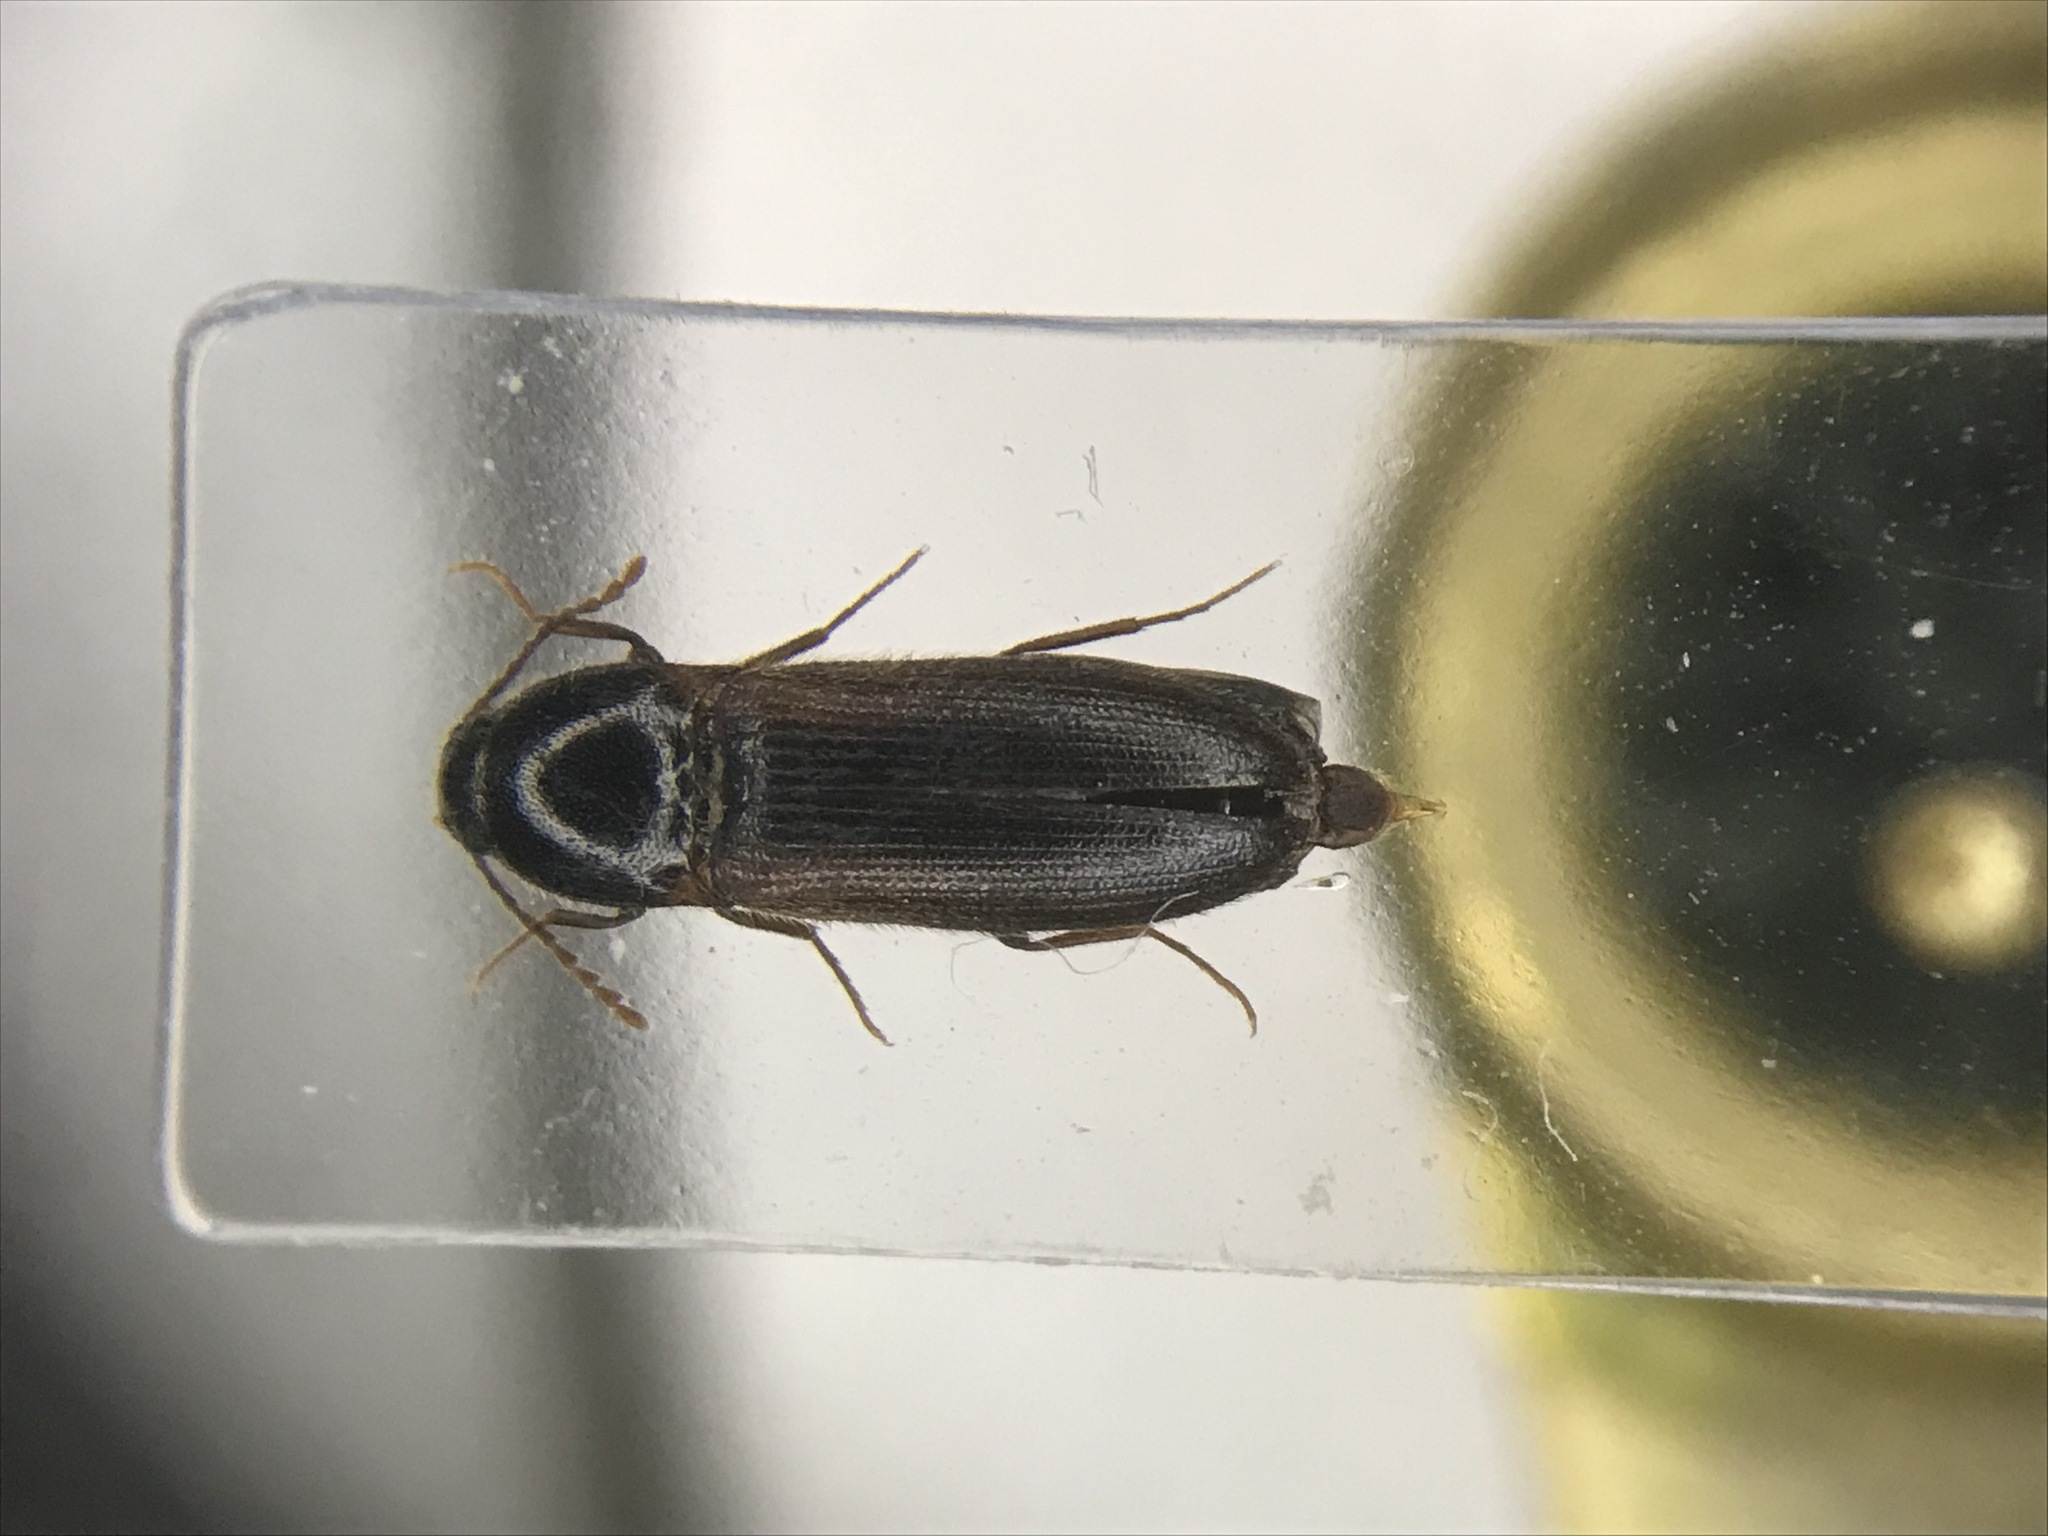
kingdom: Animalia
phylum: Arthropoda
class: Insecta
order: Coleoptera
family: Elateridae
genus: Ampedus
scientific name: Ampedus fusculus
